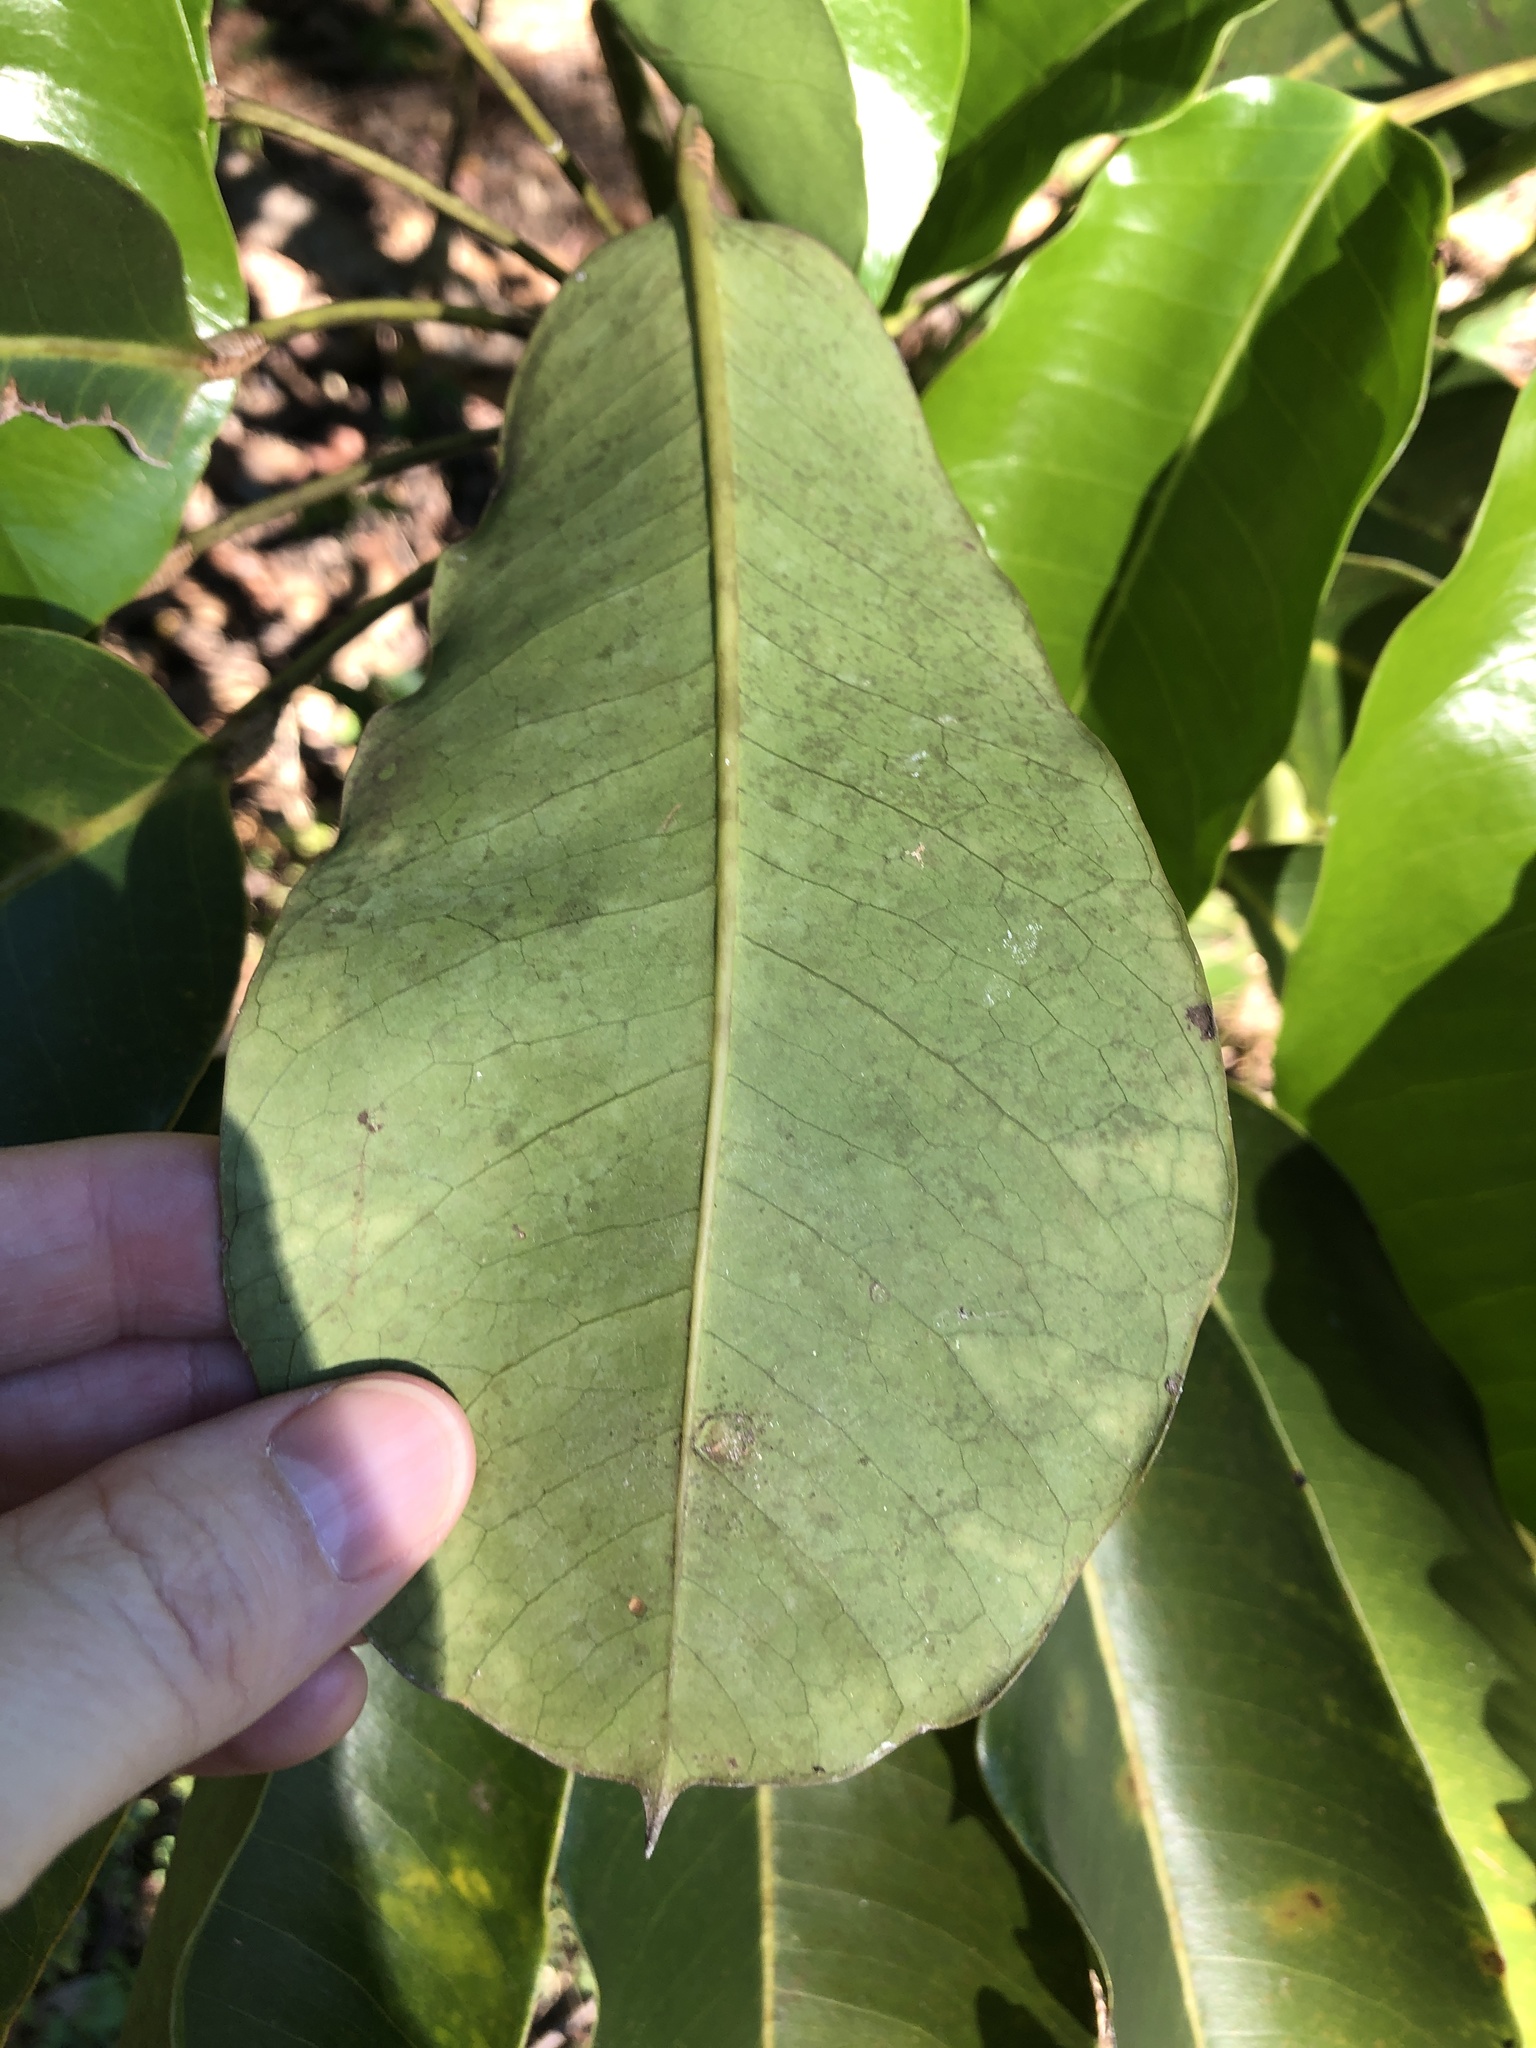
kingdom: Plantae
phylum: Tracheophyta
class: Magnoliopsida
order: Apiales
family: Araliaceae
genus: Heptapleurum
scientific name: Heptapleurum actinophyllum
